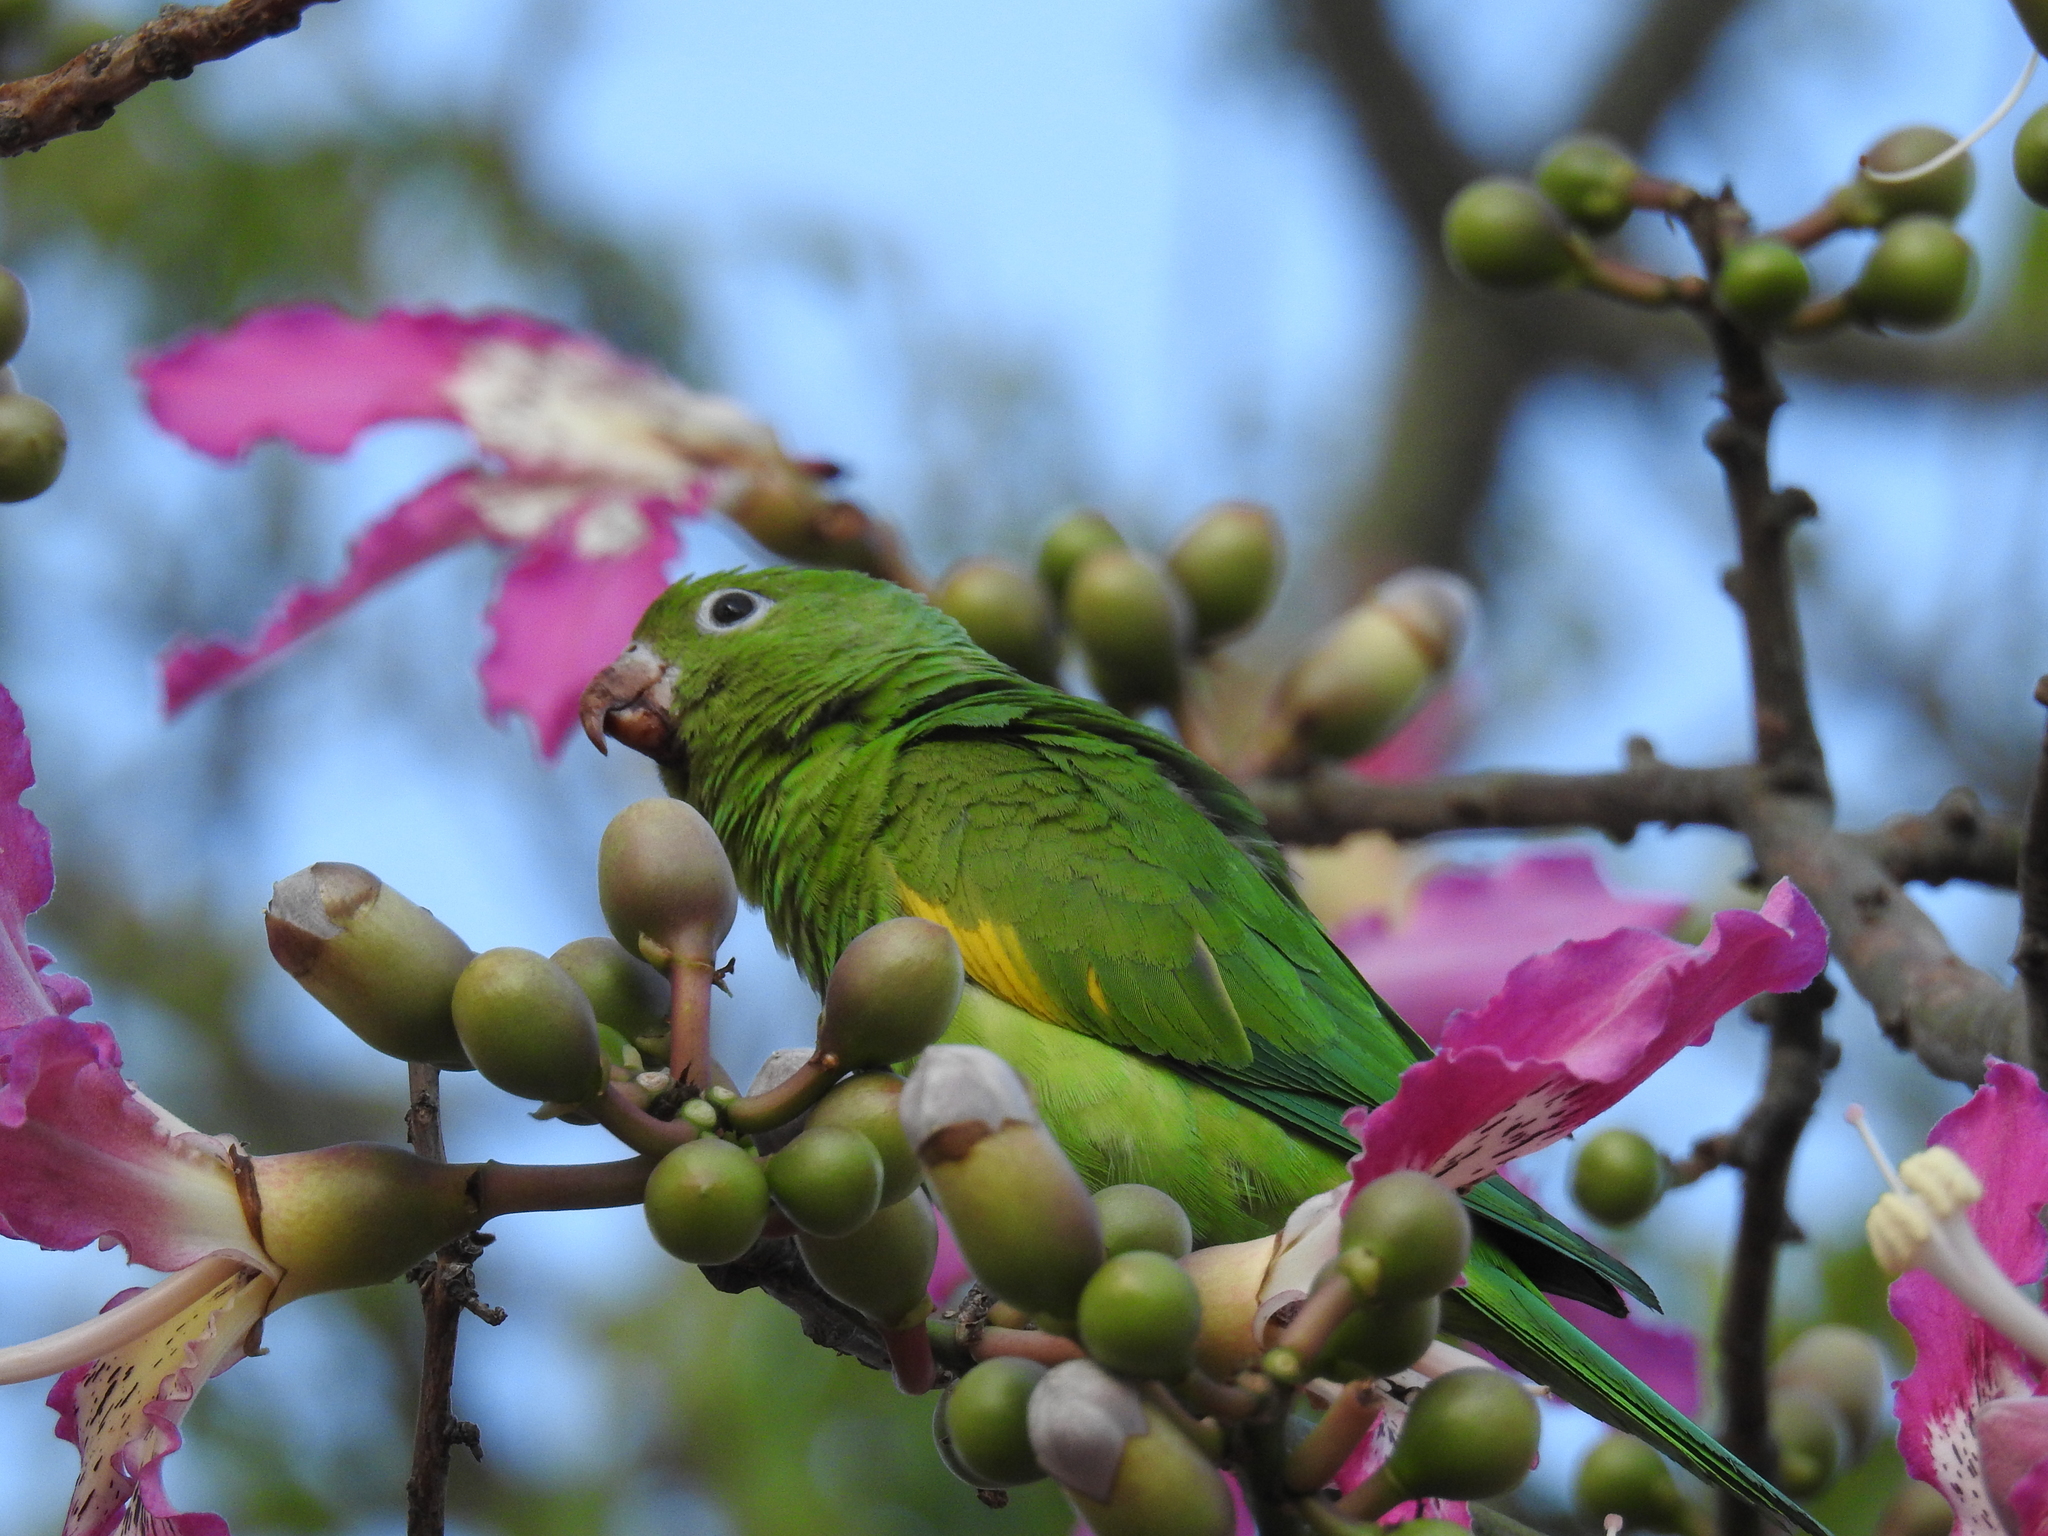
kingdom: Animalia
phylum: Chordata
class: Aves
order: Psittaciformes
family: Psittacidae
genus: Brotogeris
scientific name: Brotogeris chiriri
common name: Yellow-chevroned parakeet
